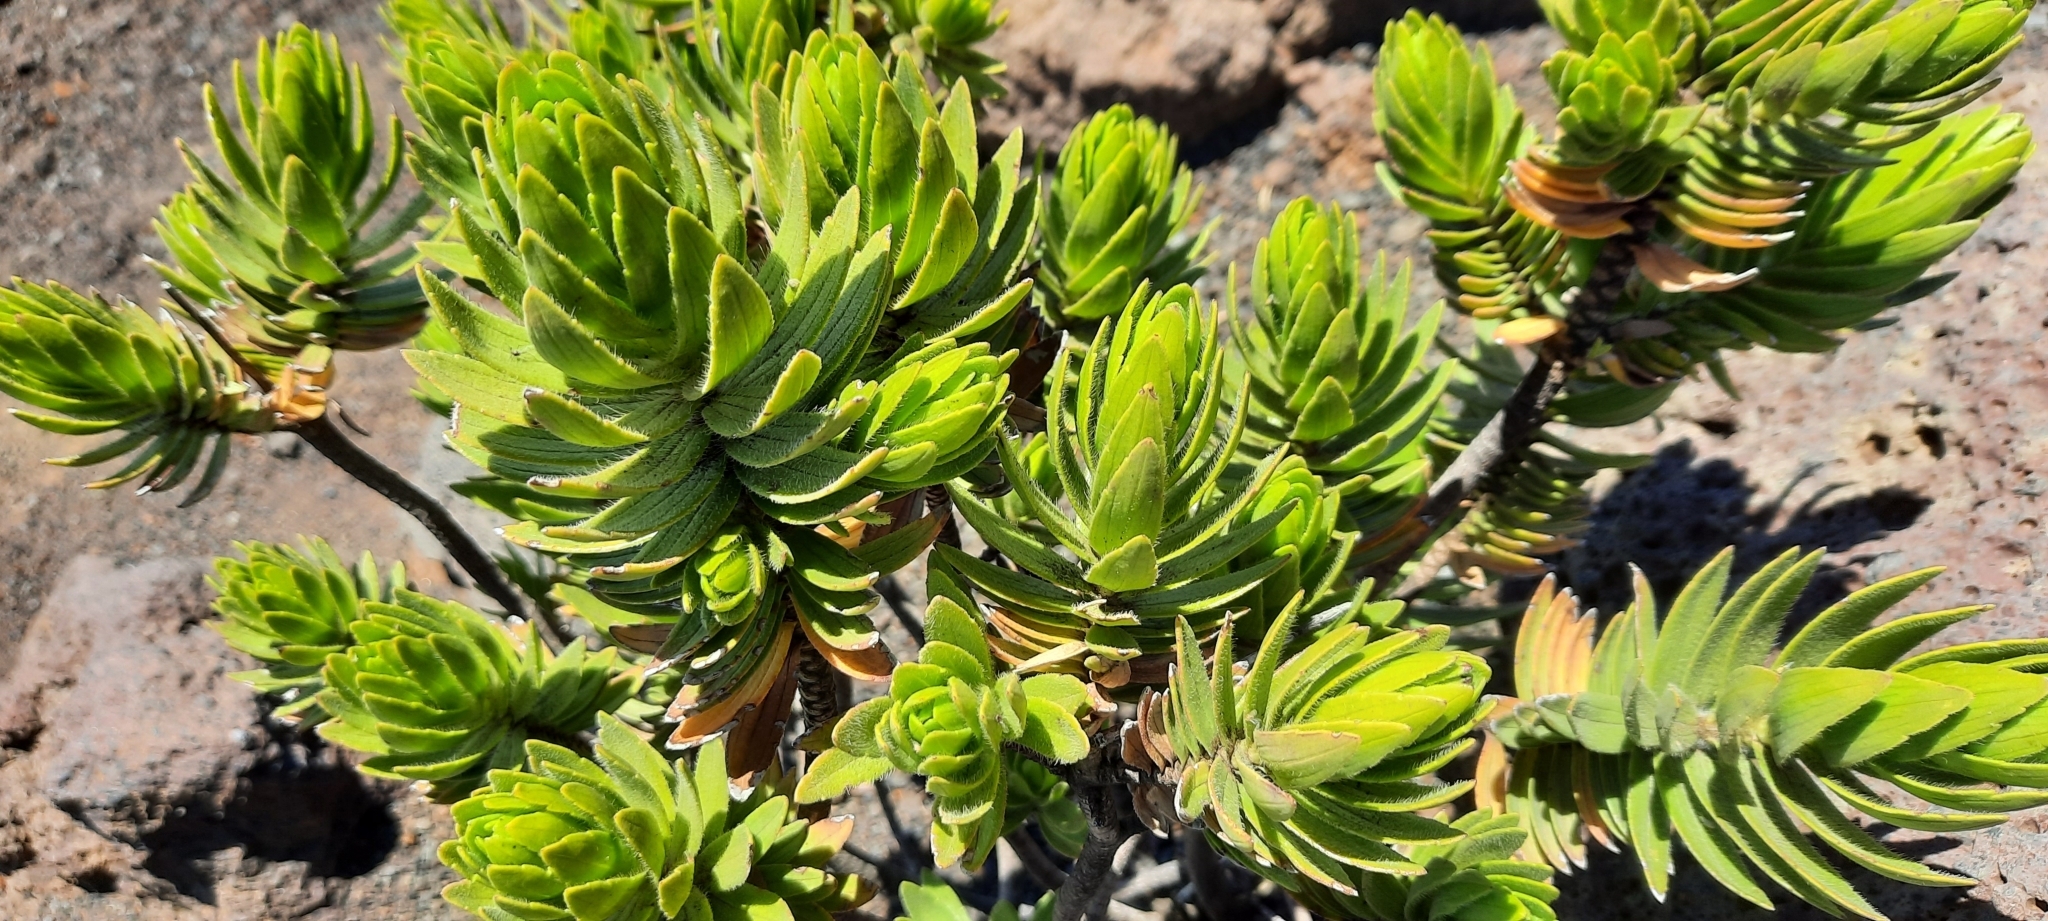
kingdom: Plantae
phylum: Tracheophyta
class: Magnoliopsida
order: Asterales
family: Asteraceae
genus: Dubautia
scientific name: Dubautia menziesii
